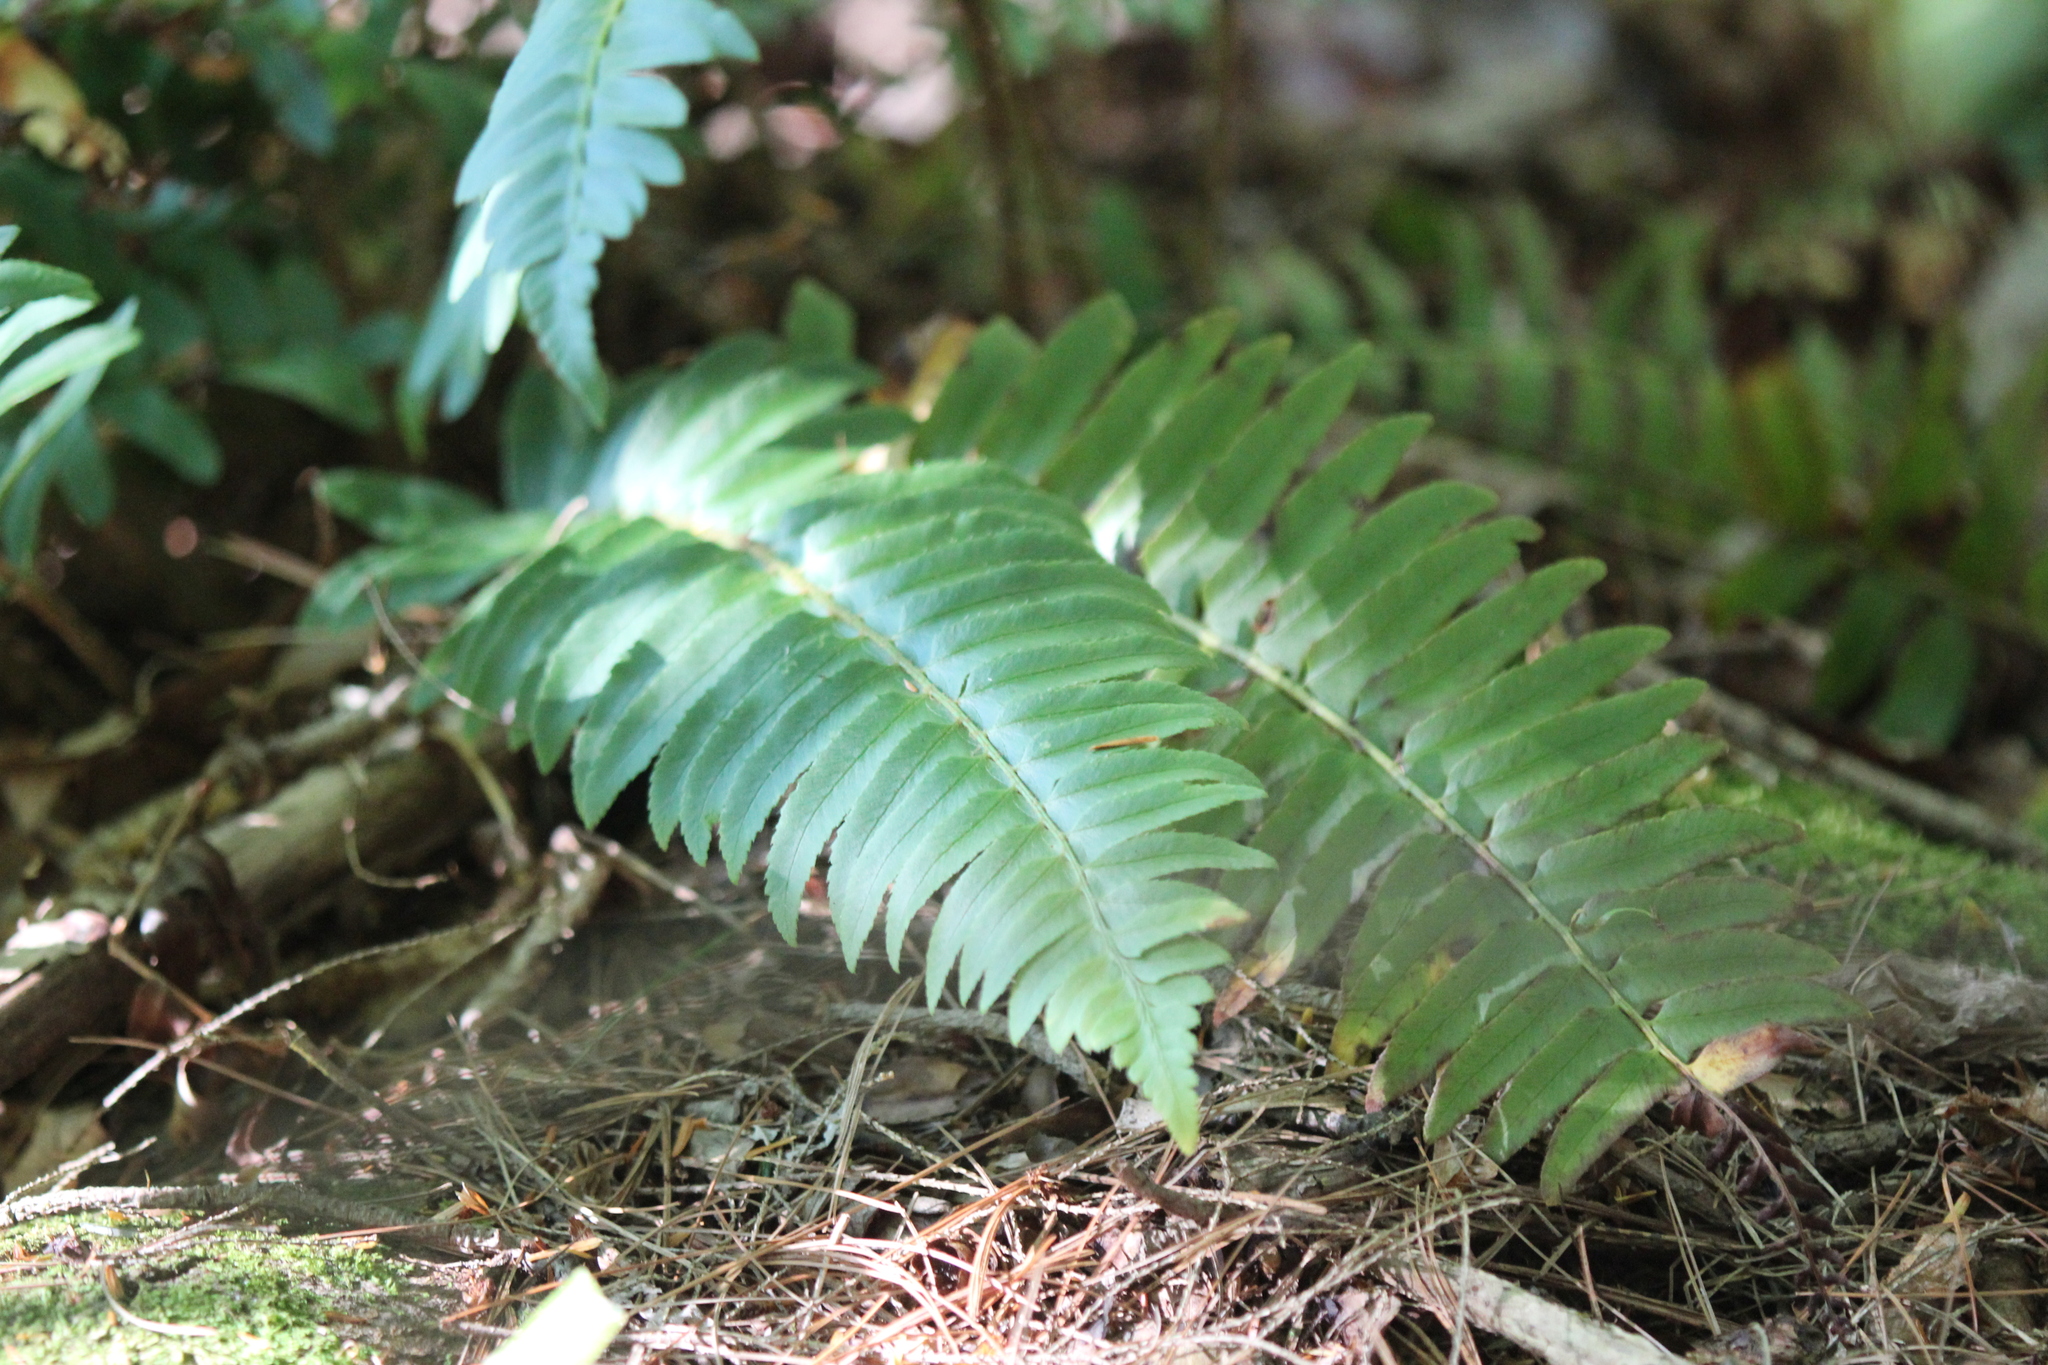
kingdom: Plantae
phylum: Tracheophyta
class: Polypodiopsida
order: Polypodiales
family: Dryopteridaceae
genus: Polystichum
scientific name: Polystichum acrostichoides
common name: Christmas fern
